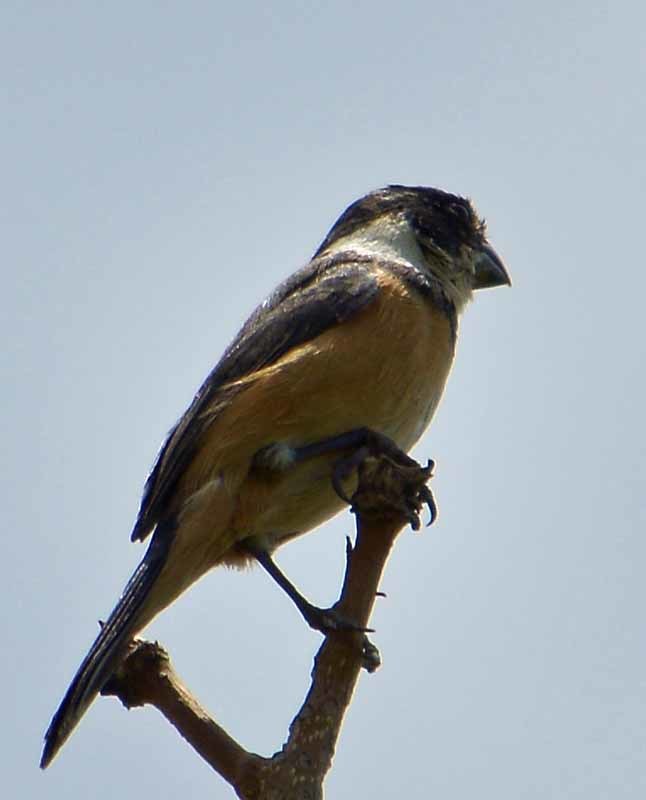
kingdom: Animalia
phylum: Chordata
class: Aves
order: Passeriformes
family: Thraupidae
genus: Sporophila
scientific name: Sporophila torqueola
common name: White-collared seedeater
